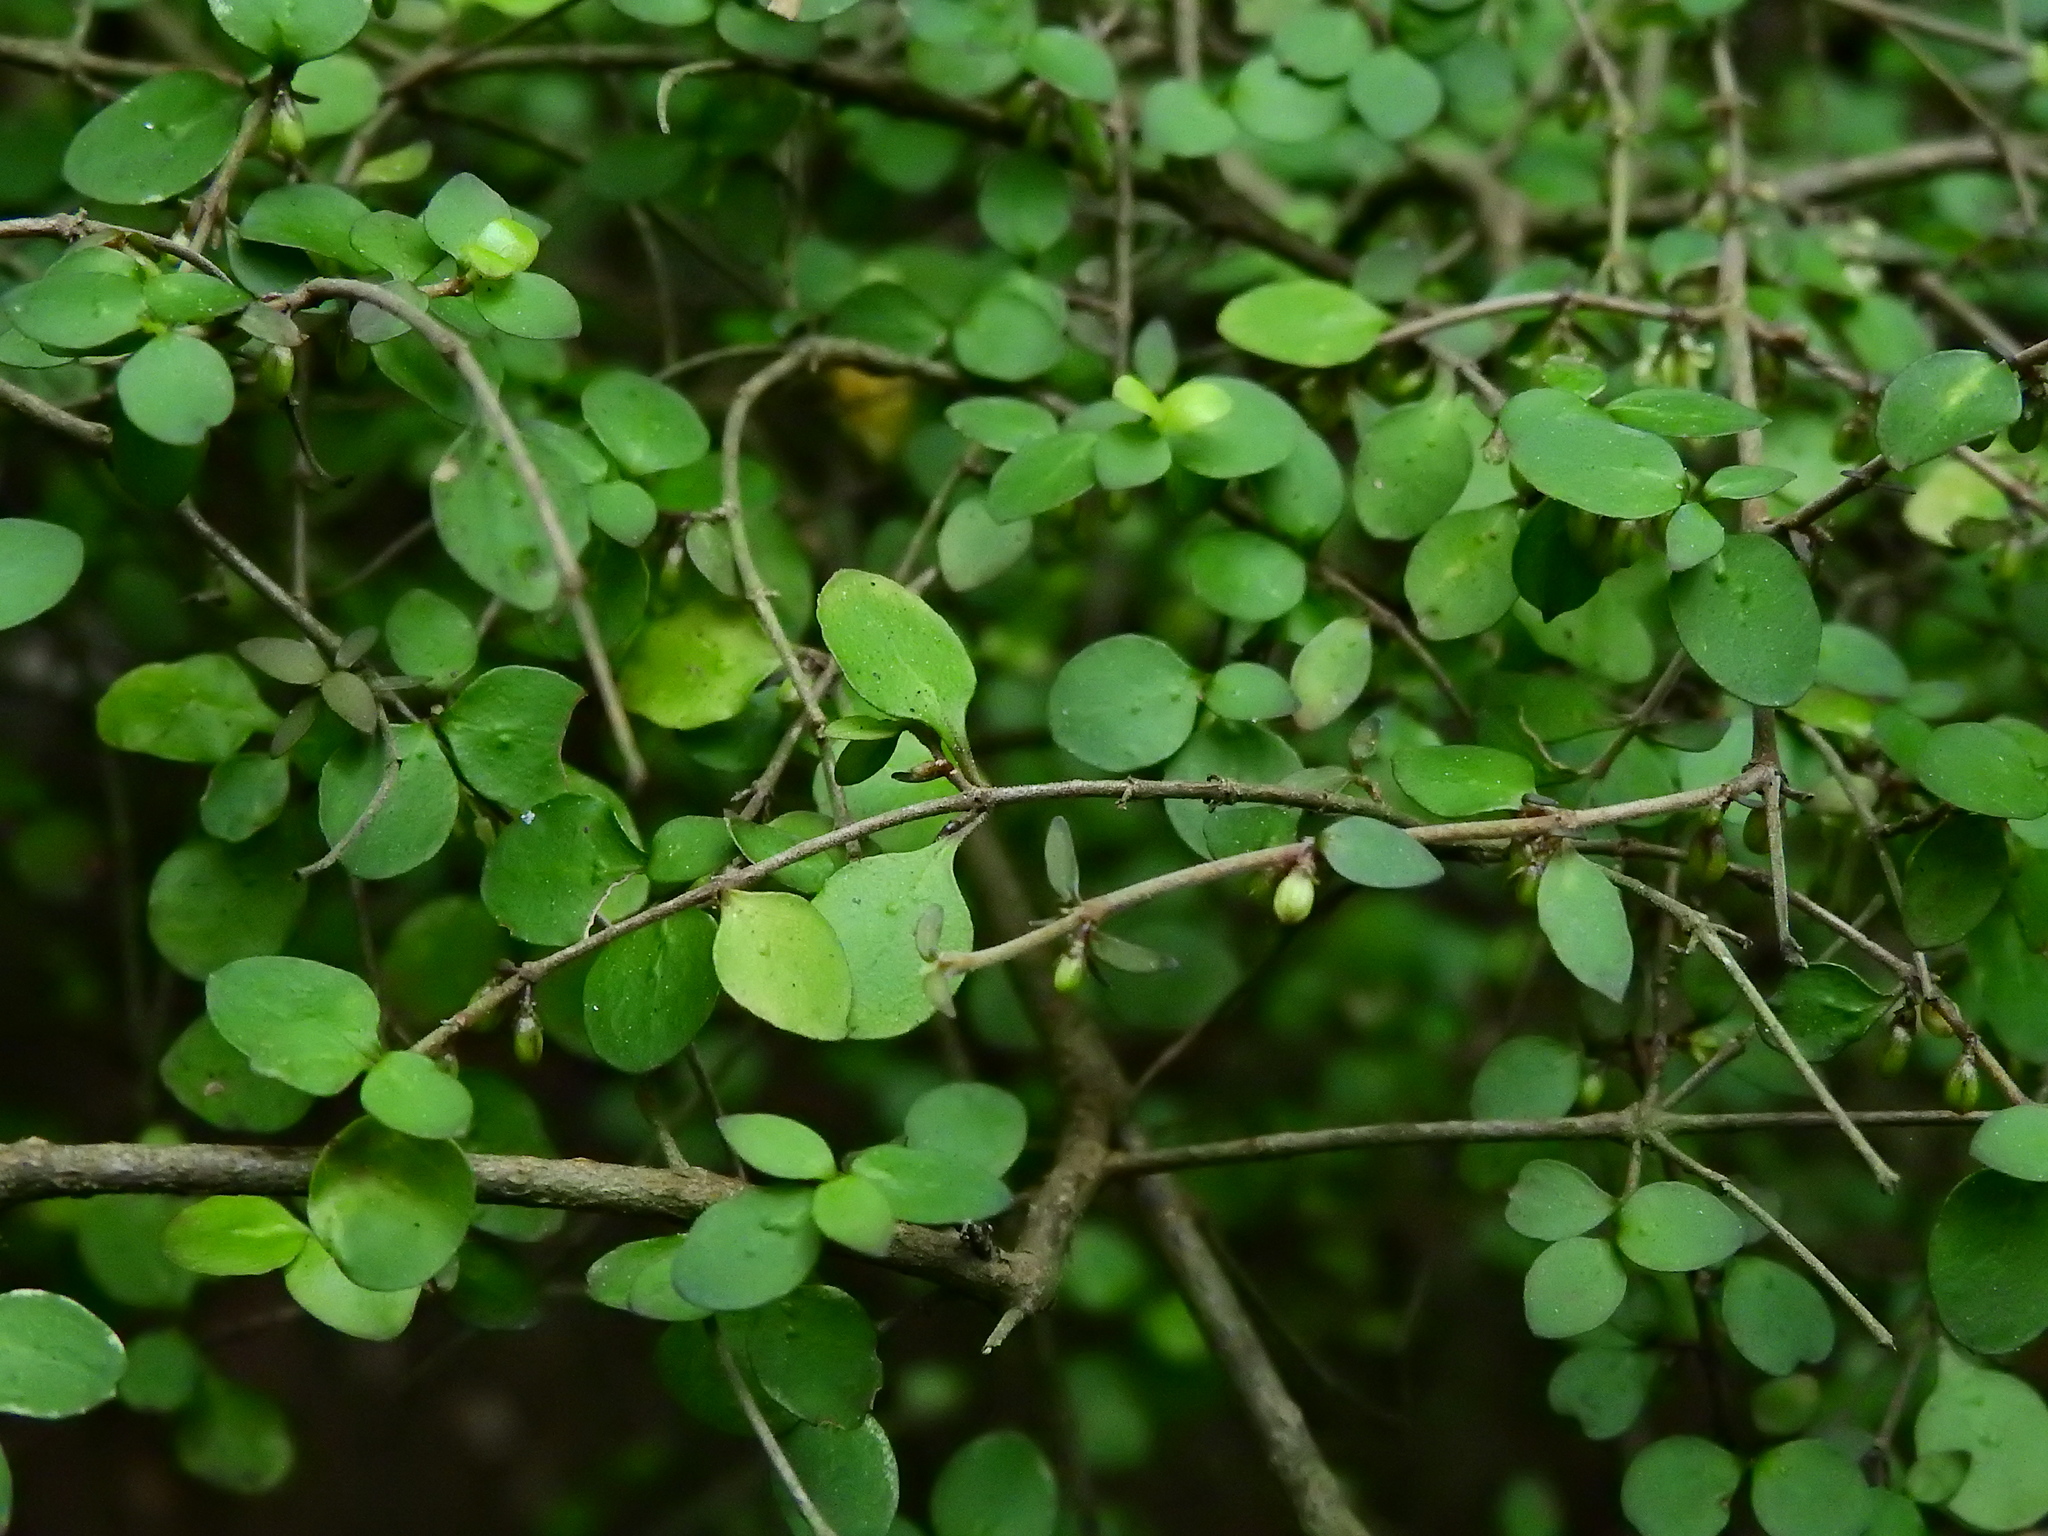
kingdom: Plantae
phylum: Tracheophyta
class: Magnoliopsida
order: Gentianales
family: Rubiaceae
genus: Coprosma
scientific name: Coprosma rhamnoides
